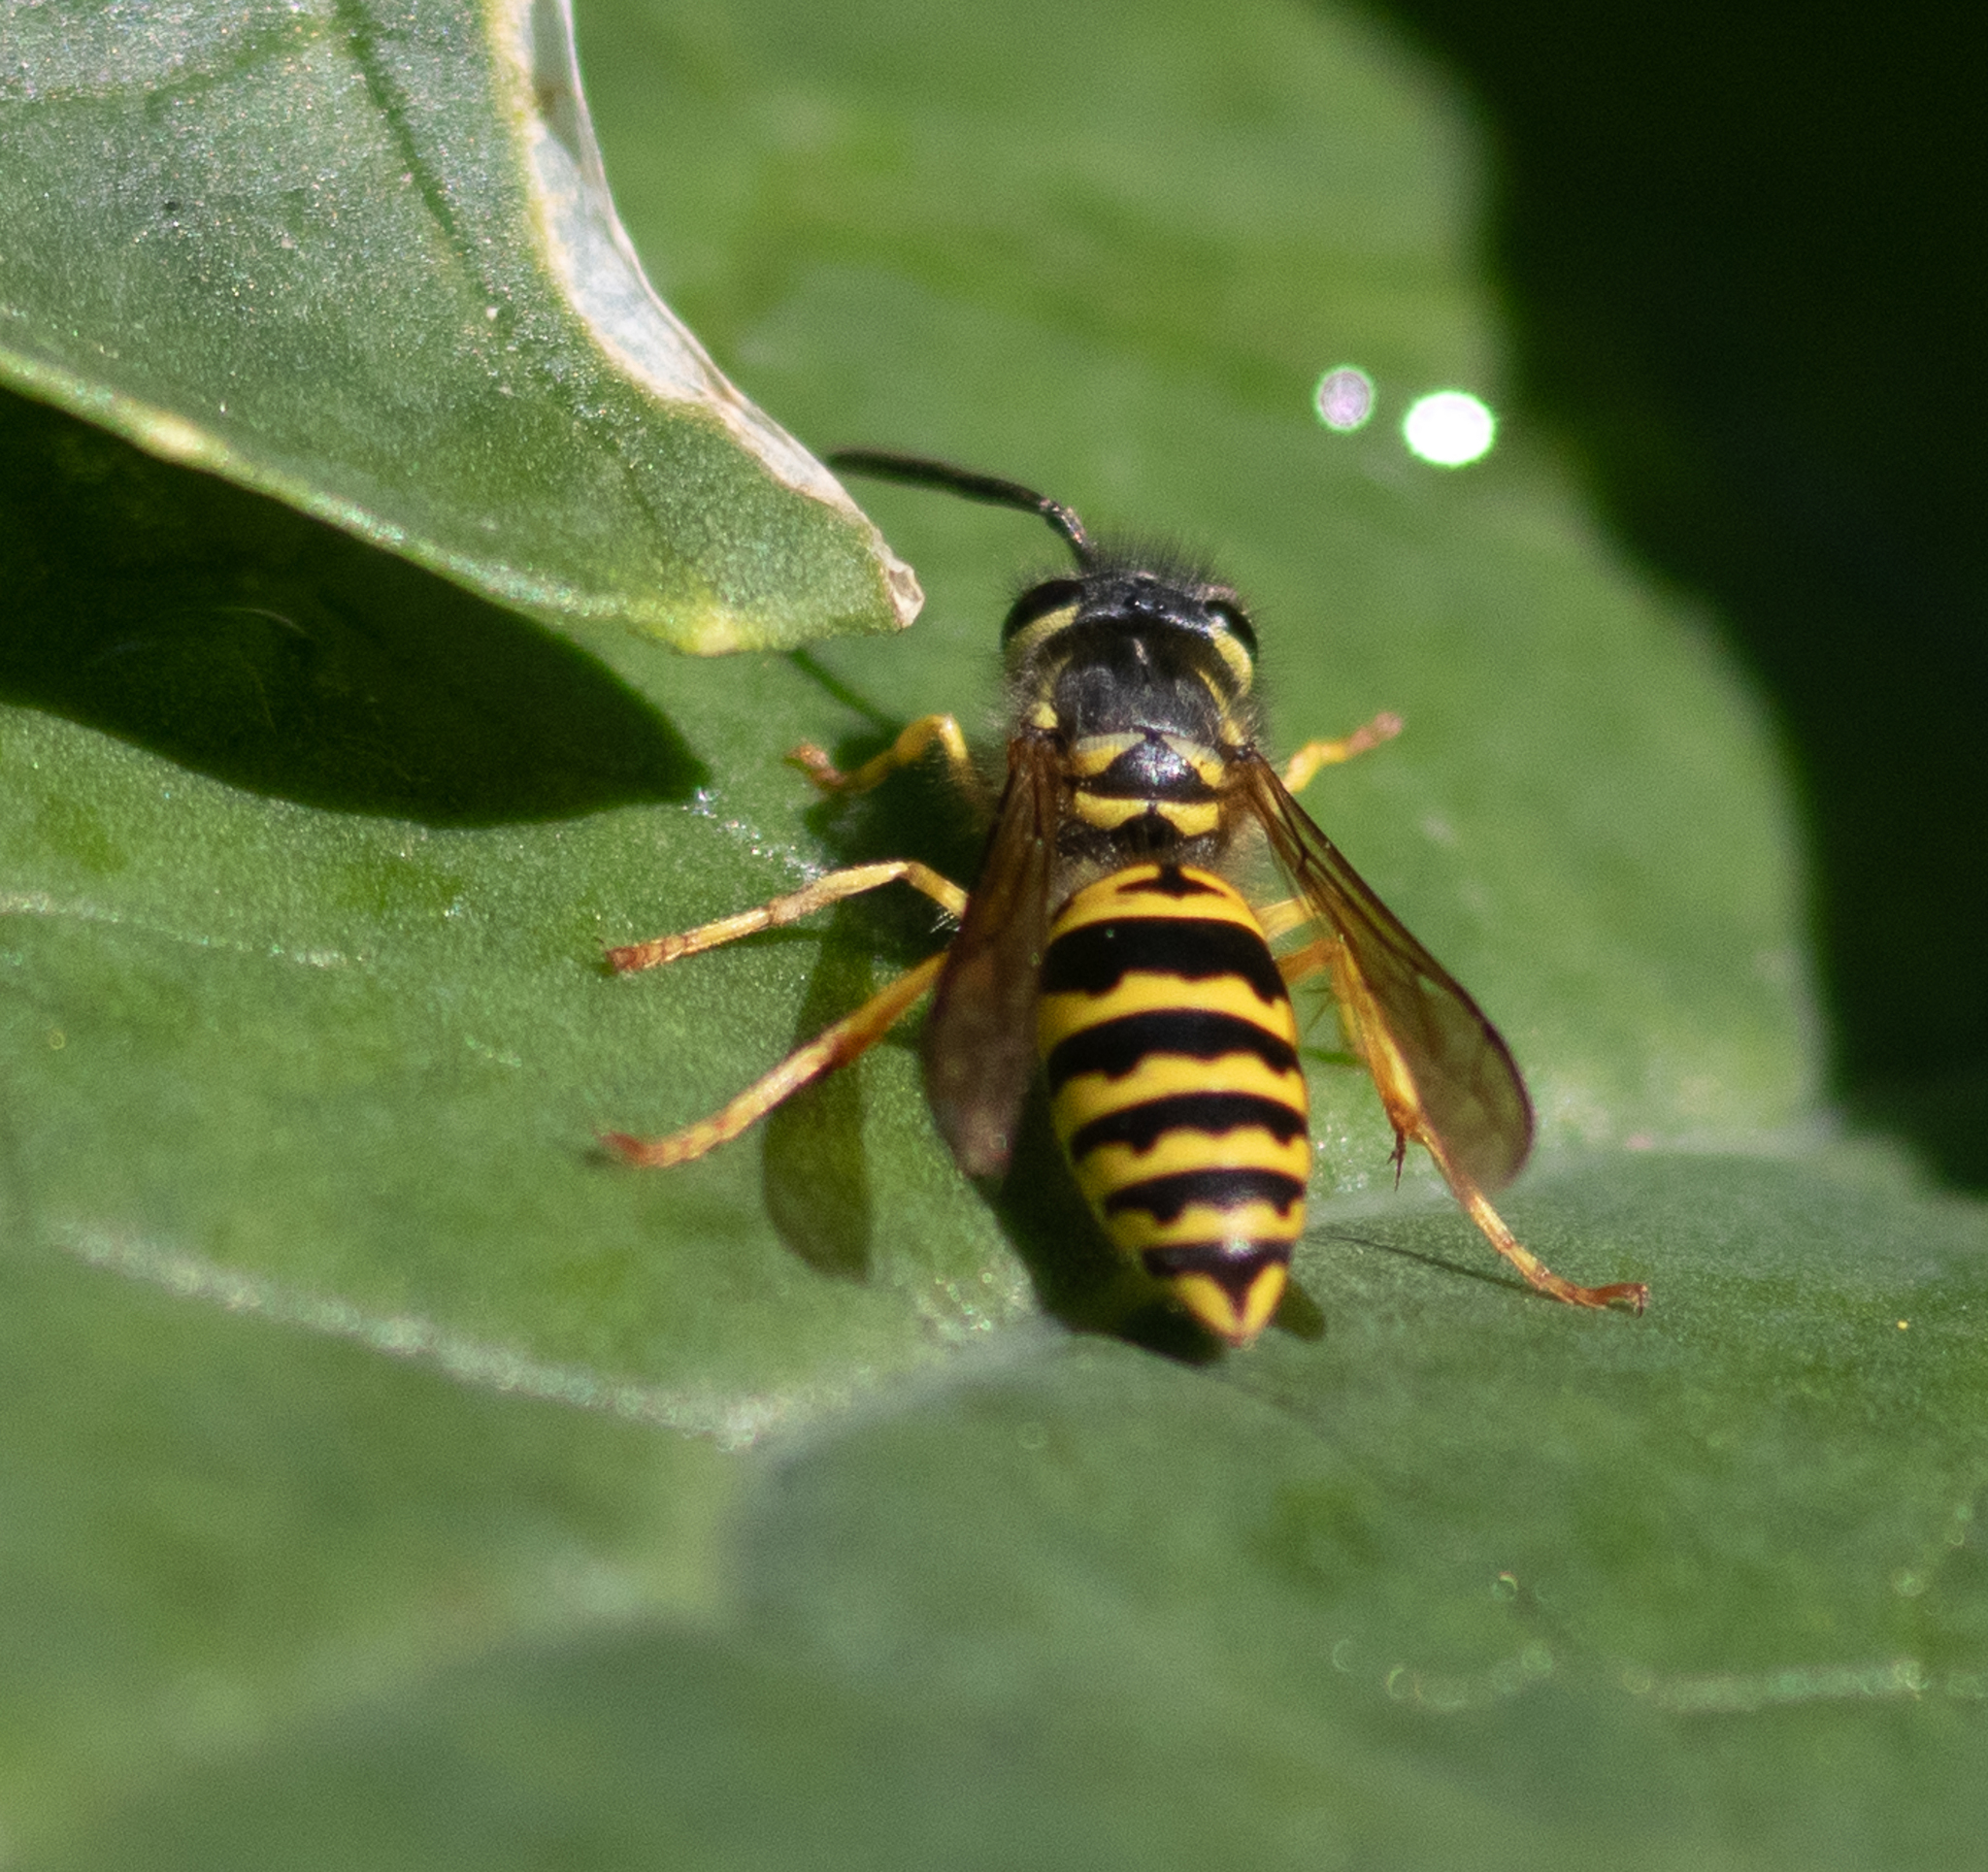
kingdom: Animalia
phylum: Arthropoda
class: Insecta
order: Hymenoptera
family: Vespidae
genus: Vespula
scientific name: Vespula maculifrons
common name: Eastern yellowjacket
